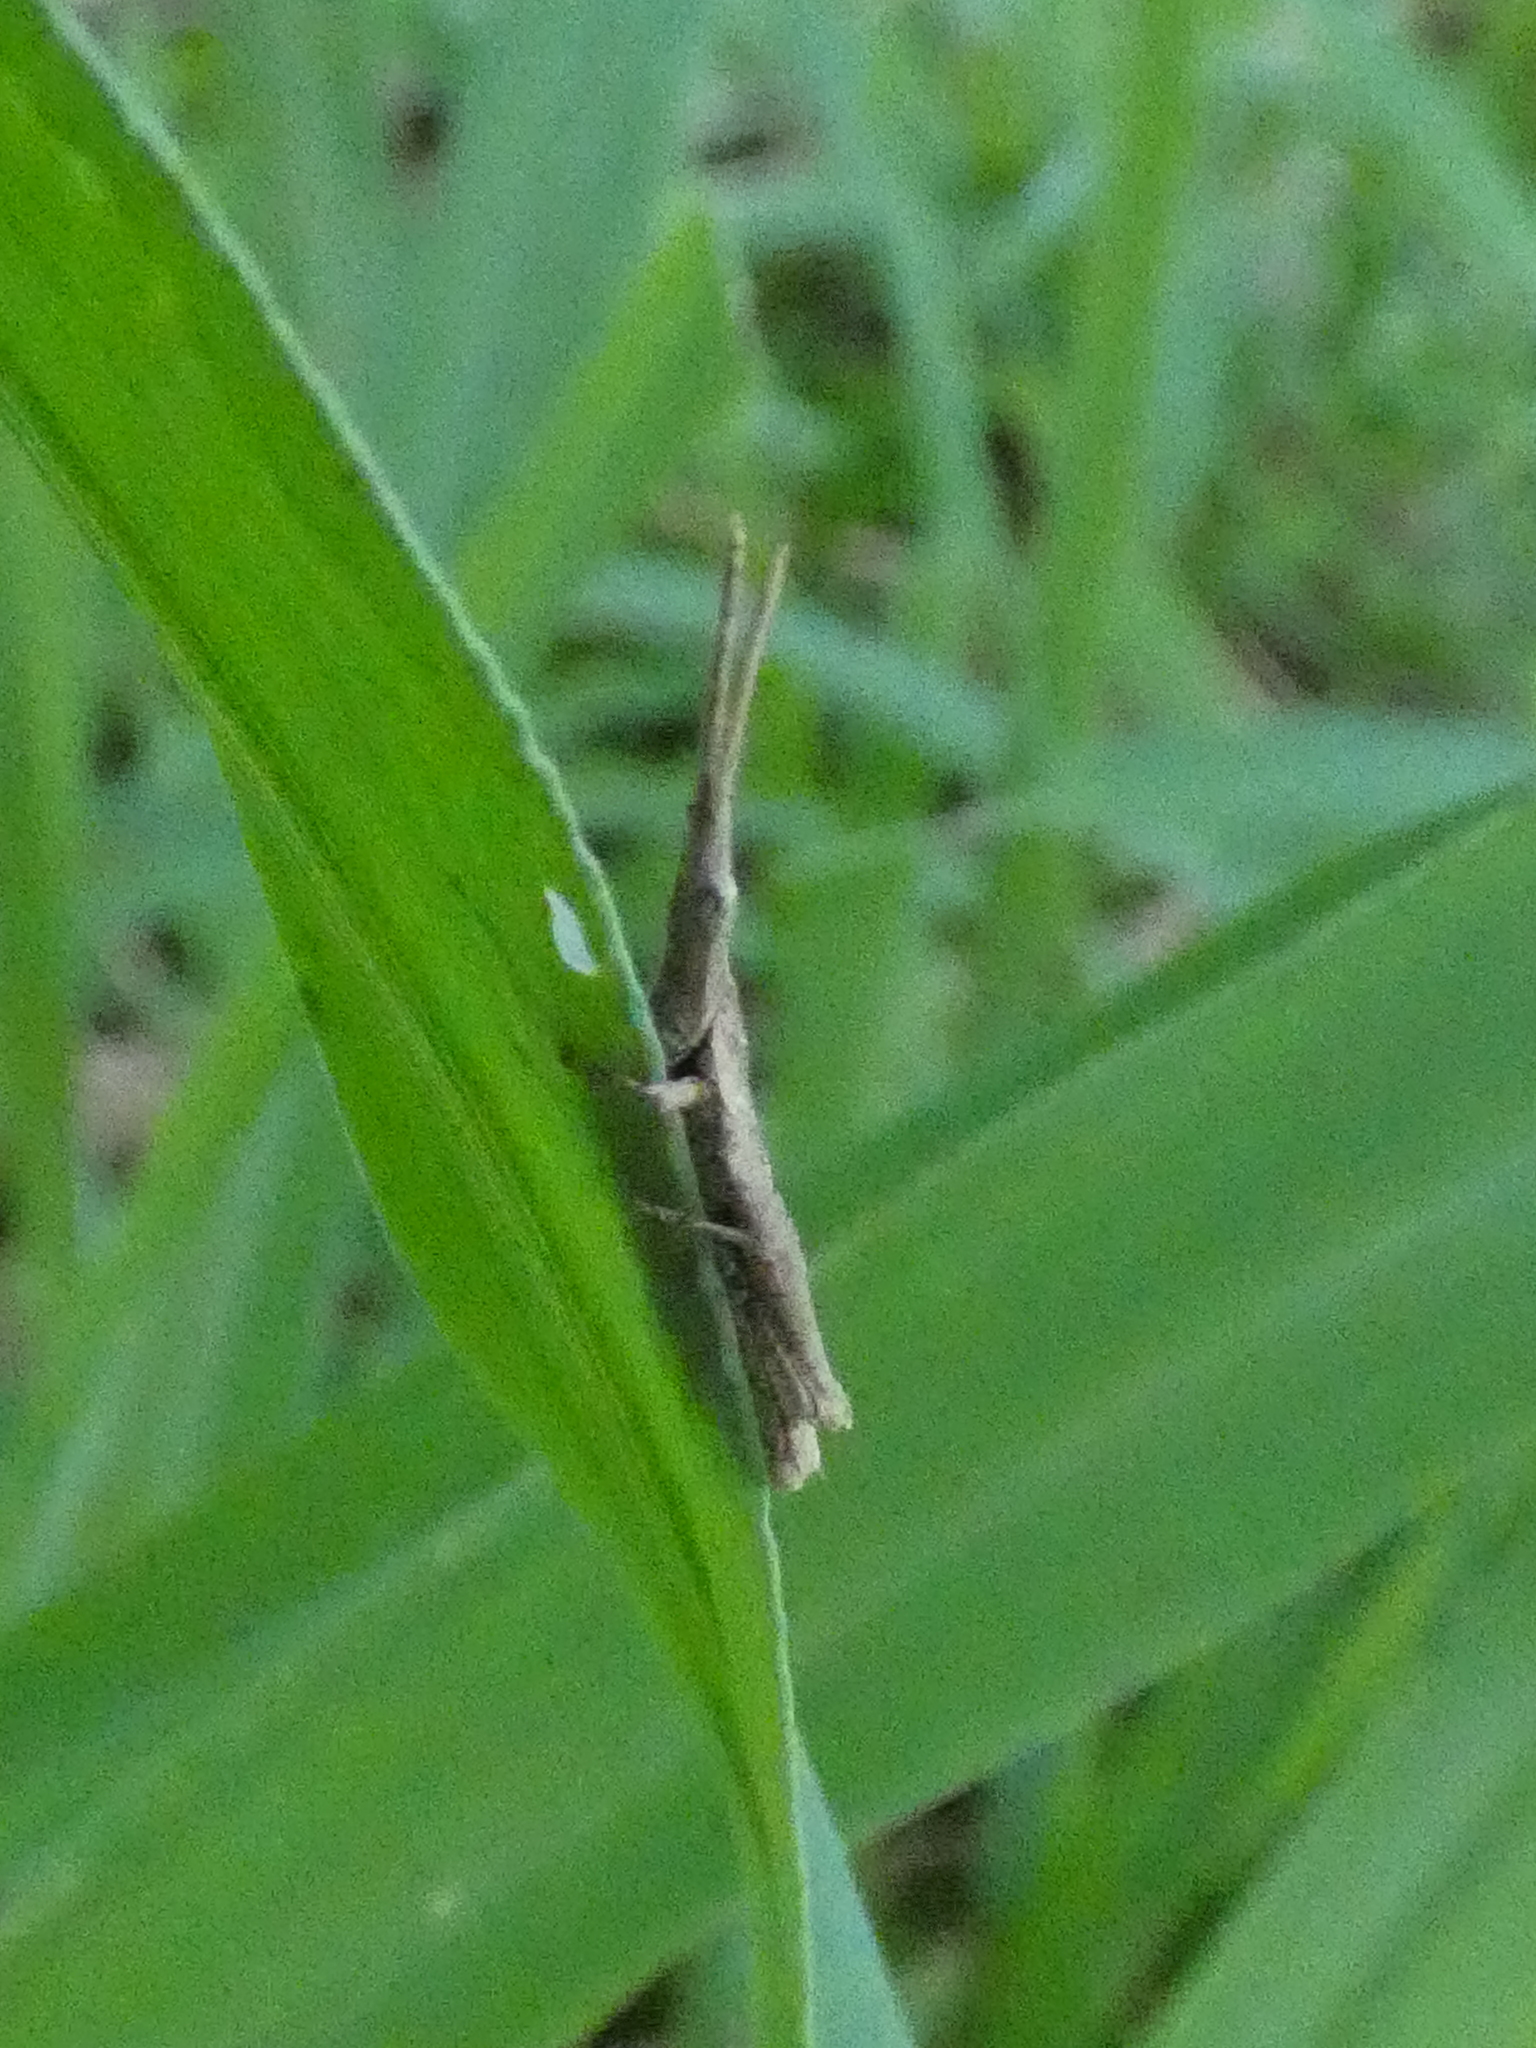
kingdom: Animalia
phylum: Arthropoda
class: Insecta
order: Orthoptera
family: Pyrgomorphidae
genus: Algete
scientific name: Algete brunneri
